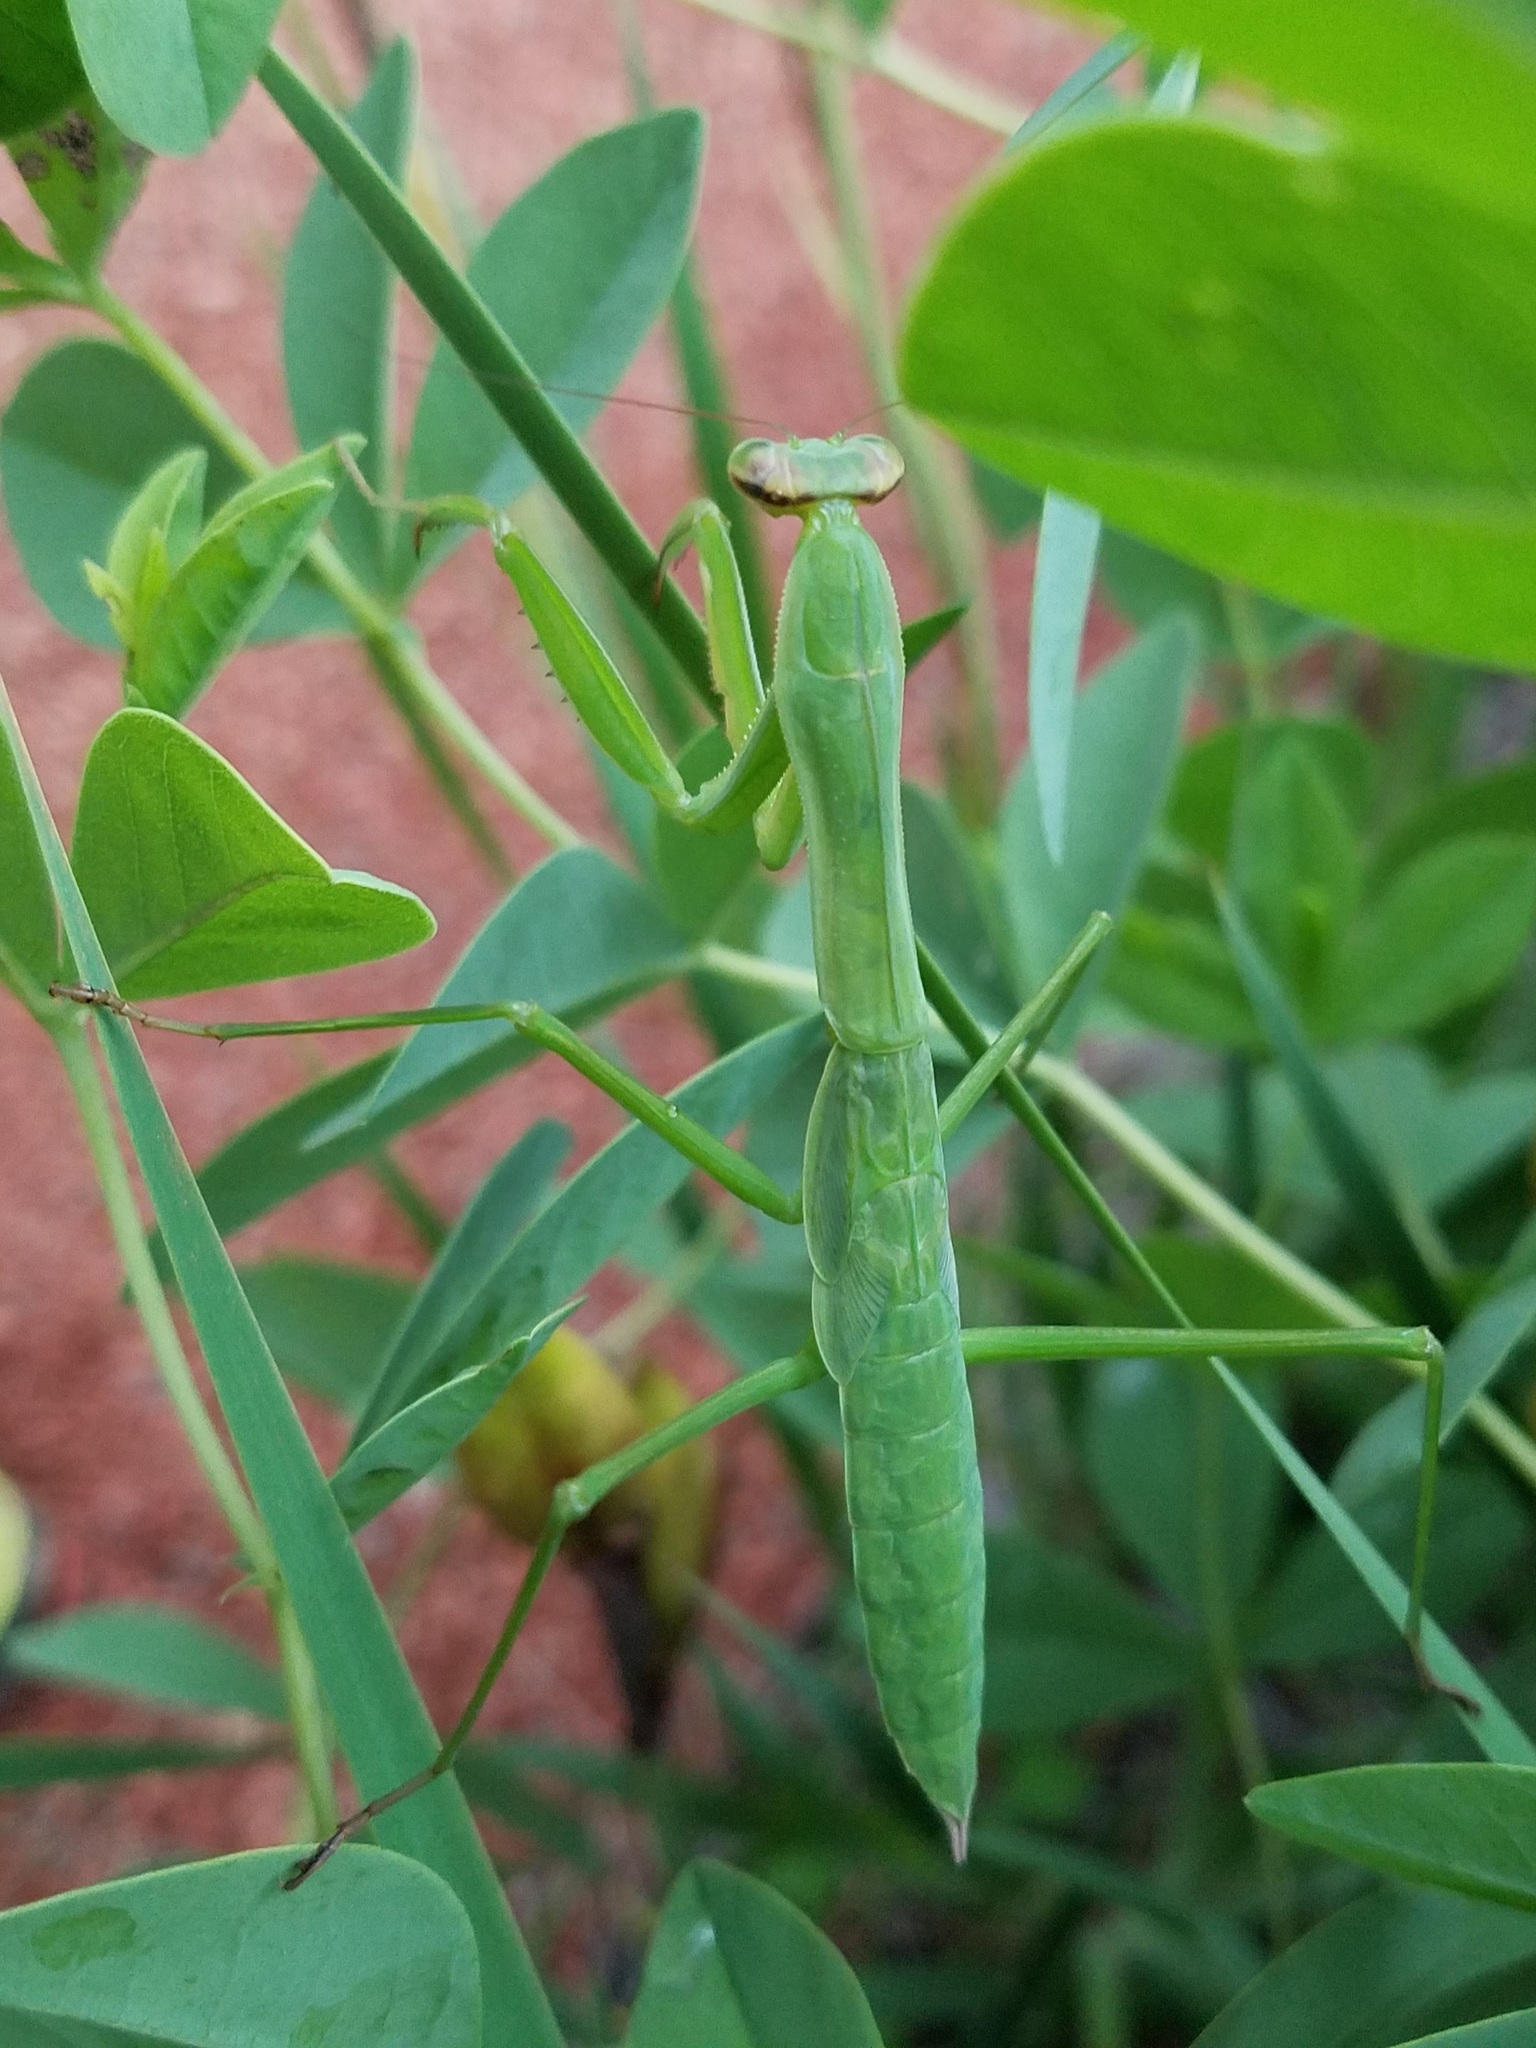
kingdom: Animalia
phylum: Arthropoda
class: Insecta
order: Mantodea
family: Mantidae
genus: Tenodera
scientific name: Tenodera sinensis
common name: Chinese mantis
